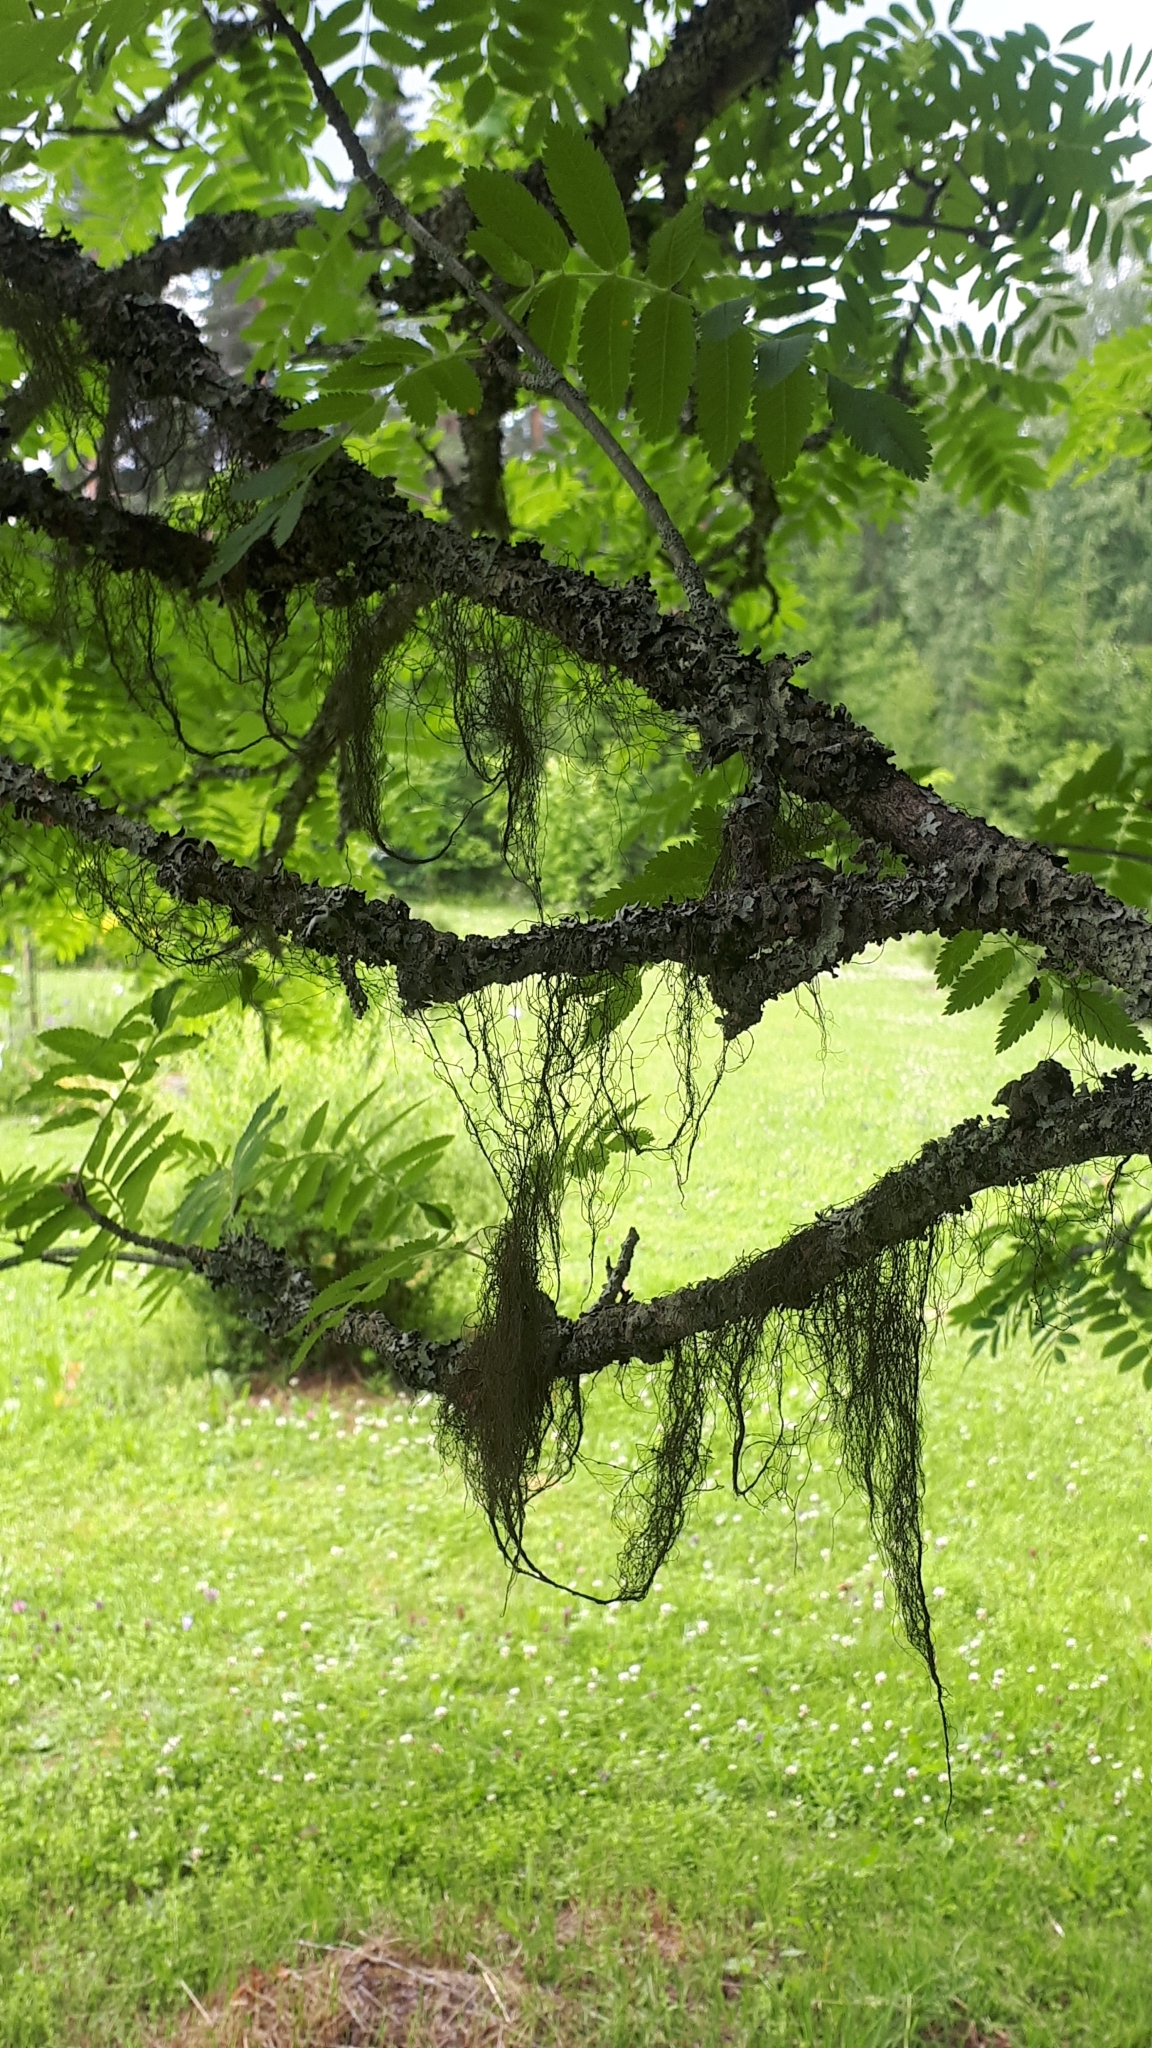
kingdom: Fungi
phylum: Ascomycota
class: Lecanoromycetes
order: Lecanorales
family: Parmeliaceae
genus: Bryoria
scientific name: Bryoria fuscescens
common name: Pale-footed horsehair lichen
